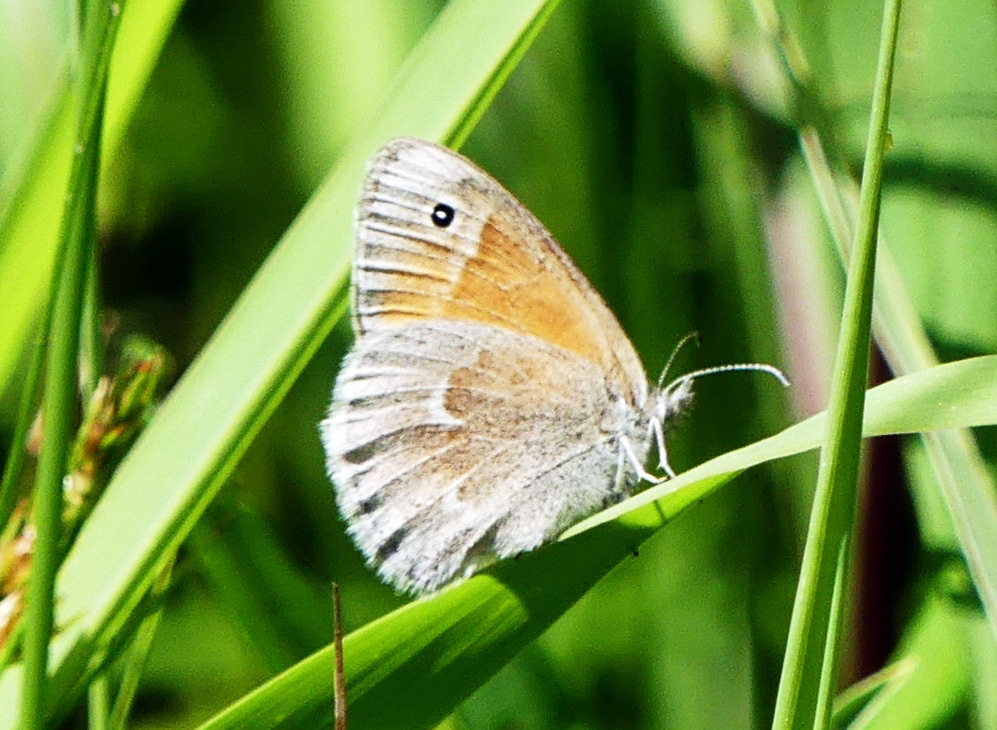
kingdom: Animalia
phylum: Arthropoda
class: Insecta
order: Lepidoptera
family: Nymphalidae
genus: Coenonympha
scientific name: Coenonympha california
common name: Common ringlet
